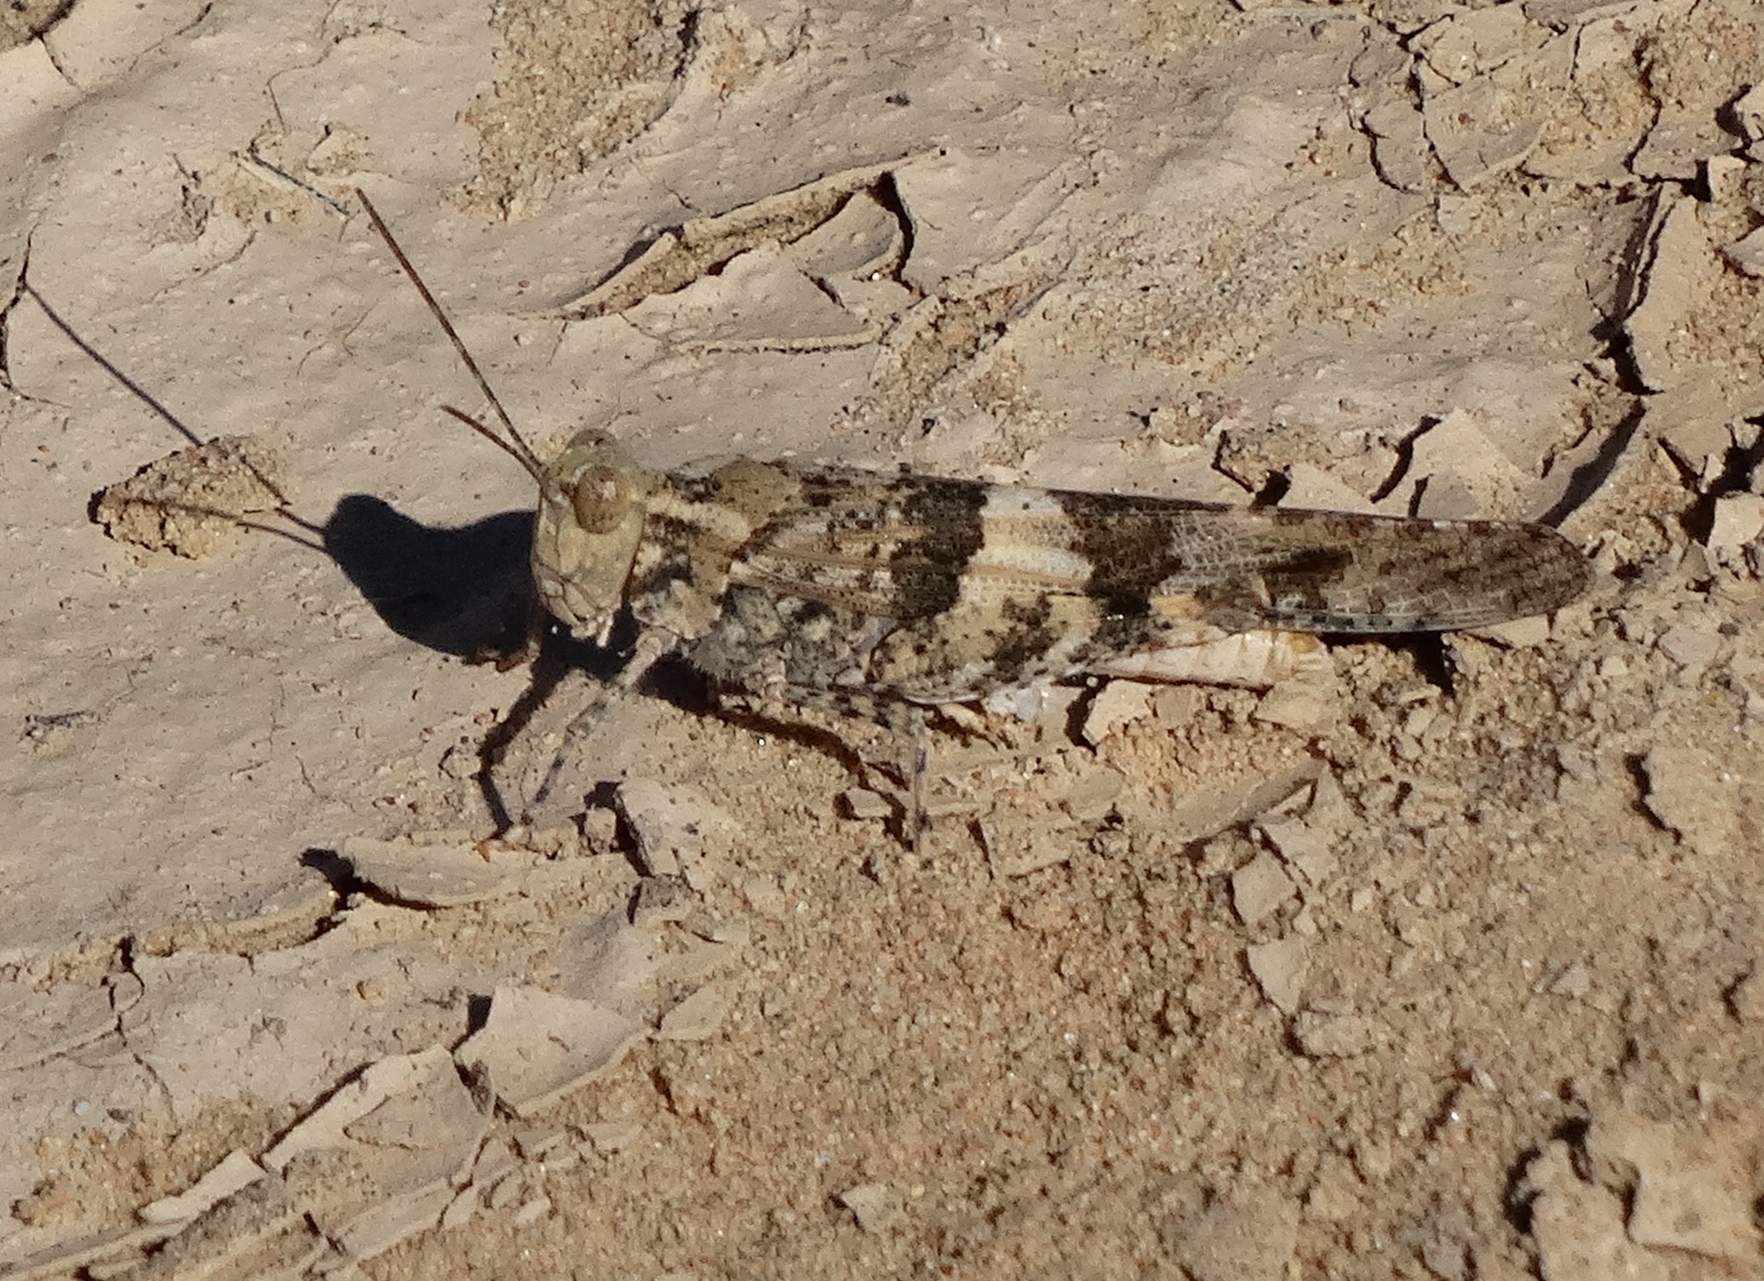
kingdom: Animalia
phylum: Arthropoda
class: Insecta
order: Orthoptera
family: Acrididae
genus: Trimerotropis
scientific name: Trimerotropis pallidipennis
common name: Pallid-winged grasshopper
